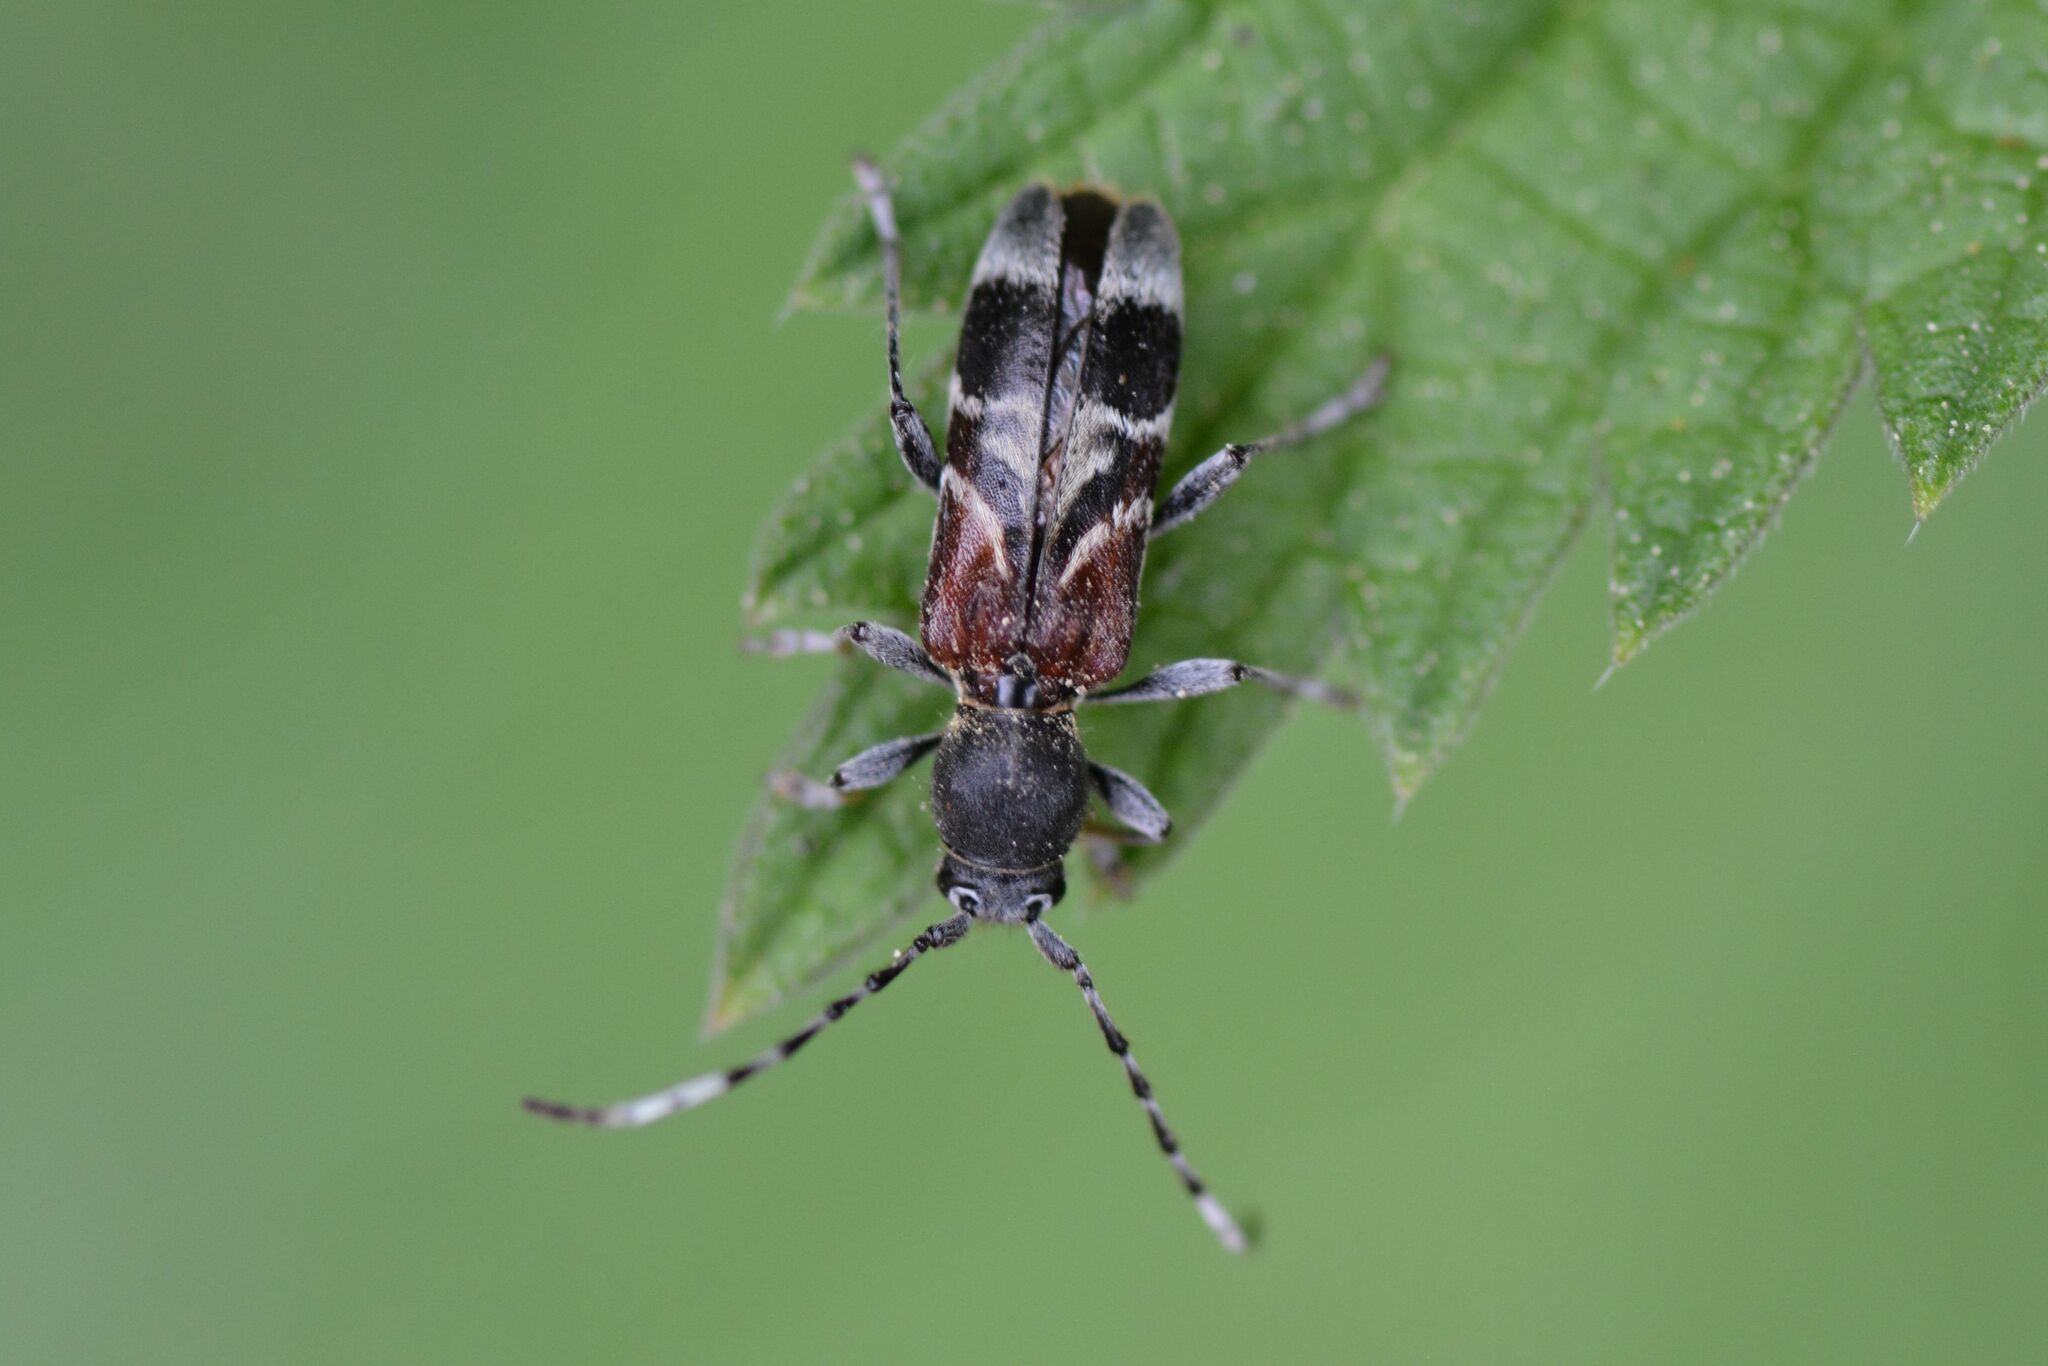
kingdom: Animalia
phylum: Arthropoda
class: Insecta
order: Coleoptera
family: Cerambycidae
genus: Anaglyptus
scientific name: Anaglyptus mysticus
